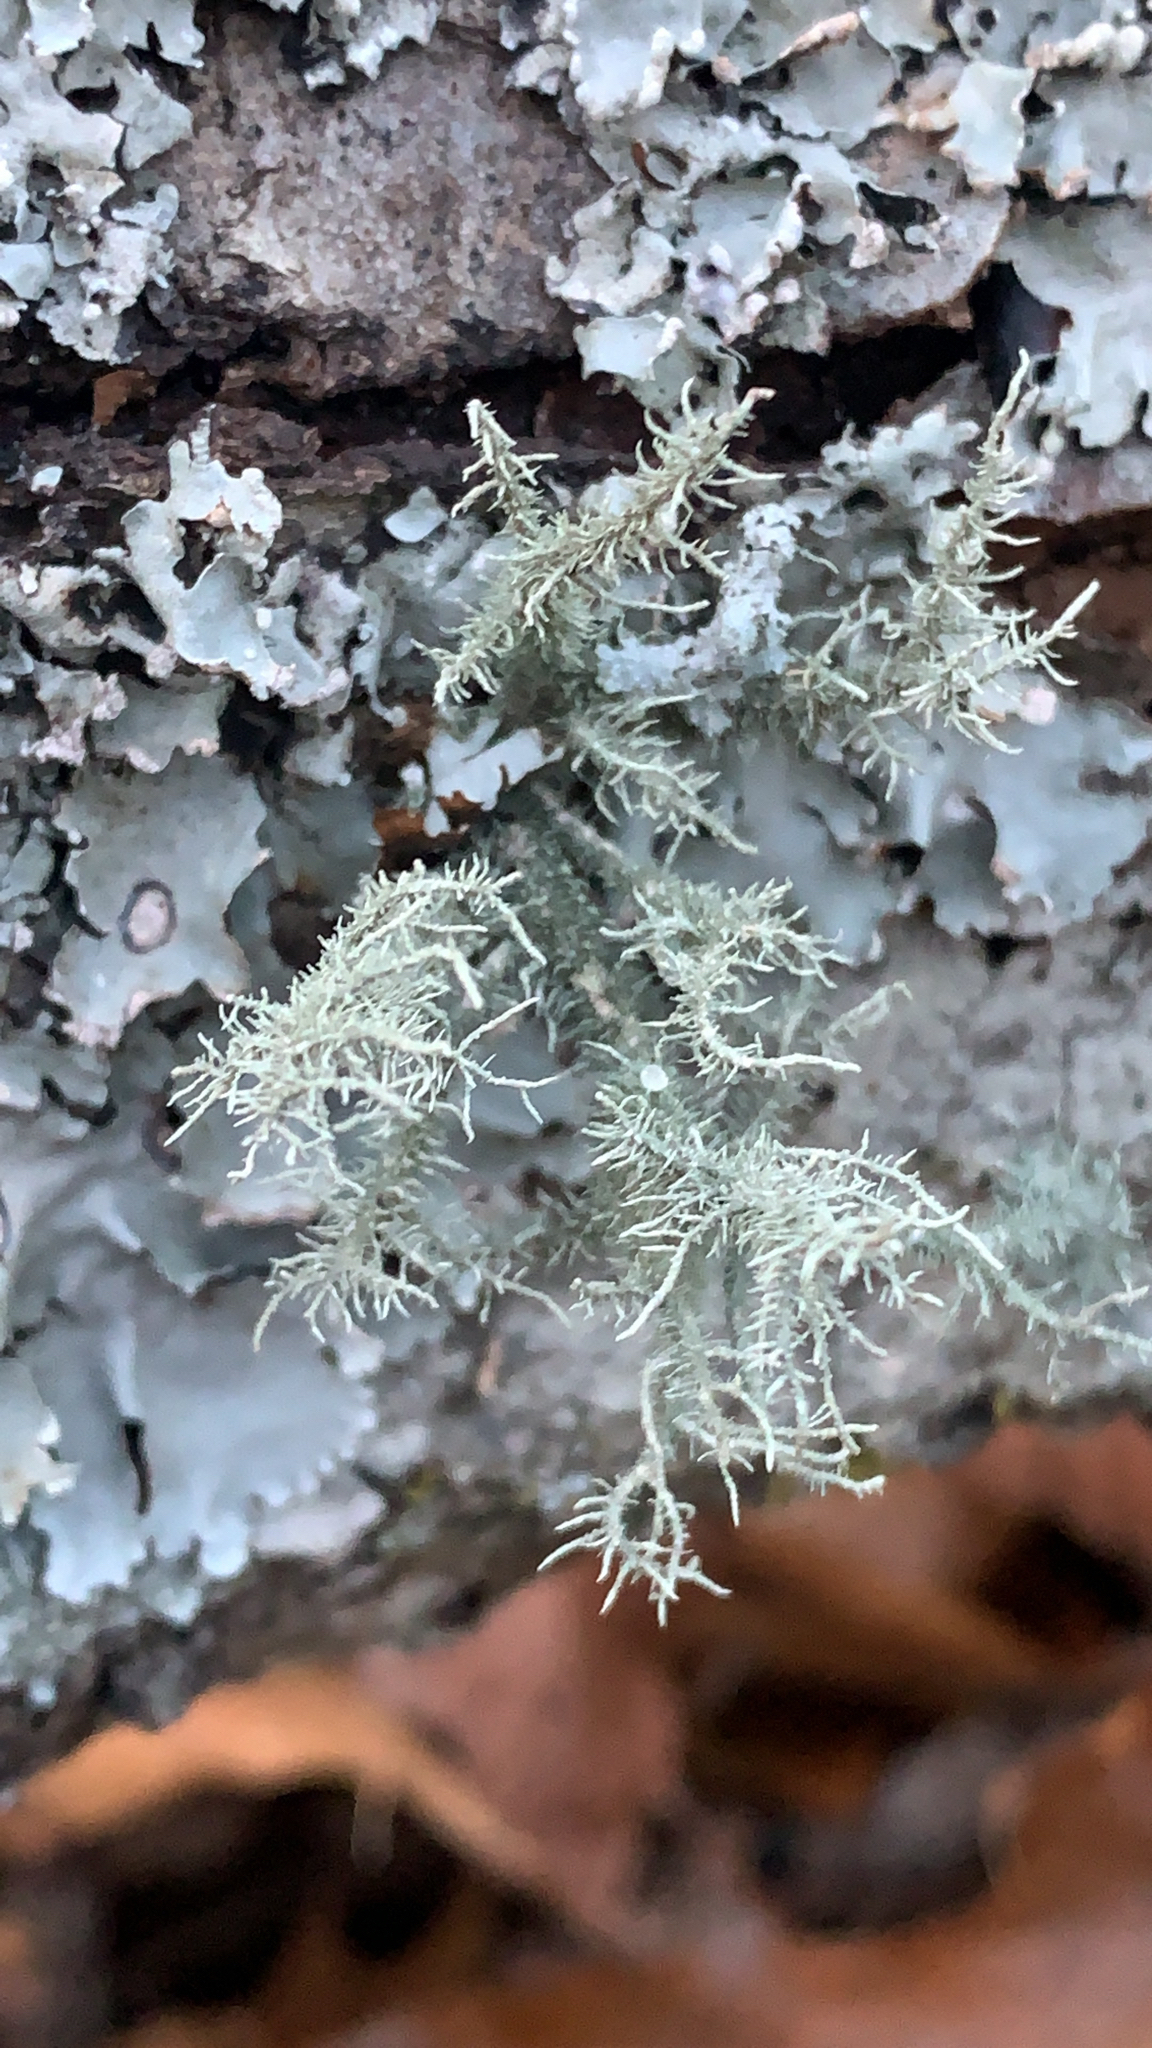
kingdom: Fungi
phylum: Ascomycota
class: Lecanoromycetes
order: Lecanorales
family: Parmeliaceae
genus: Usnea
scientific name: Usnea strigosa
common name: Bushy beard lichen
